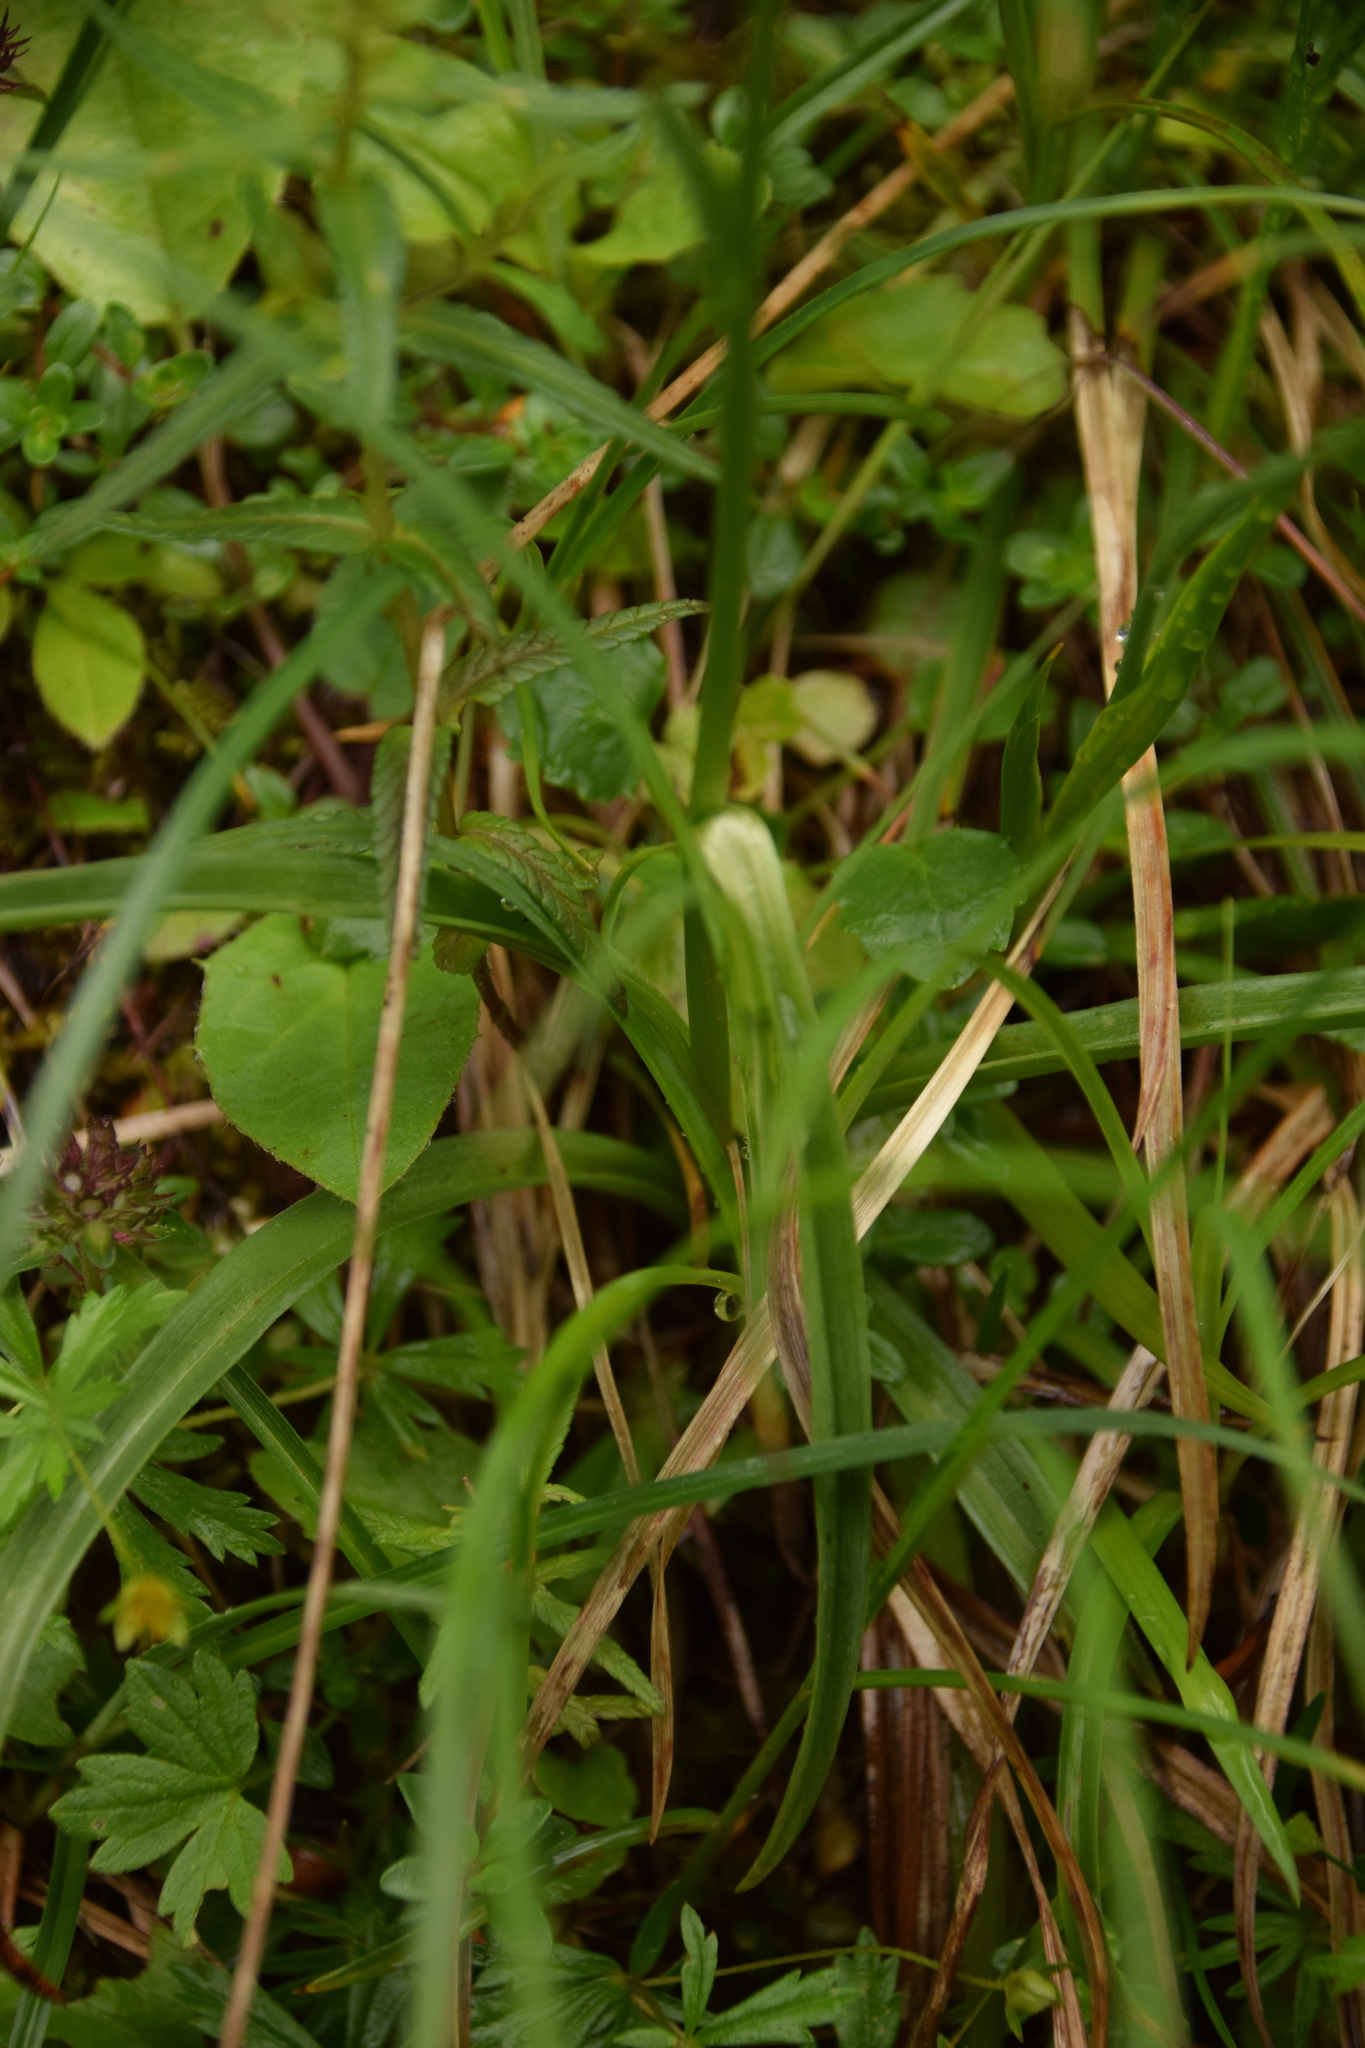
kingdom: Plantae
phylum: Tracheophyta
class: Liliopsida
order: Asparagales
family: Orchidaceae
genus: Gymnadenia
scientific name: Gymnadenia odoratissima
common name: Scented gymnadenia
